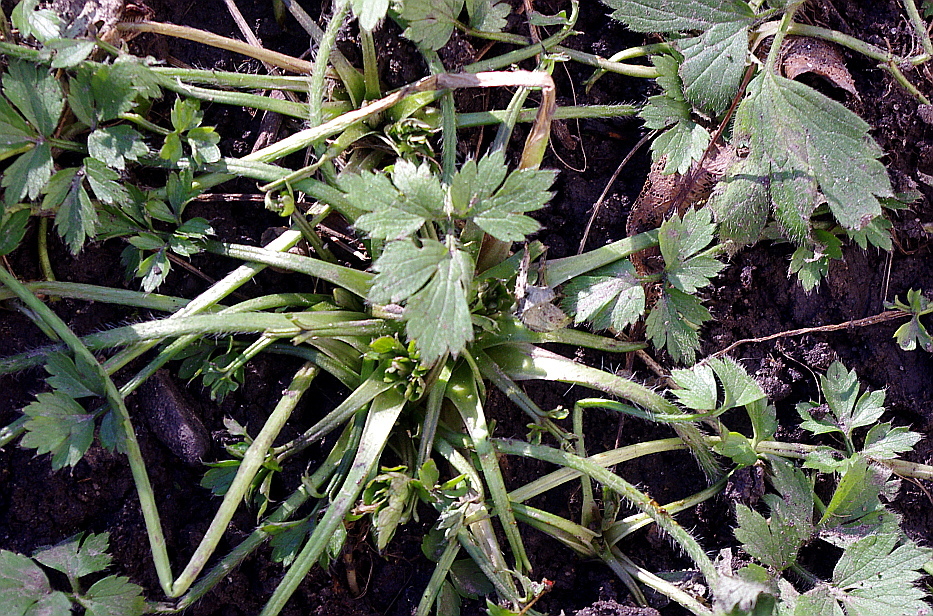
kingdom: Plantae
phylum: Tracheophyta
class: Magnoliopsida
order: Ranunculales
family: Ranunculaceae
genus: Ranunculus
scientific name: Ranunculus repens
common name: Creeping buttercup
